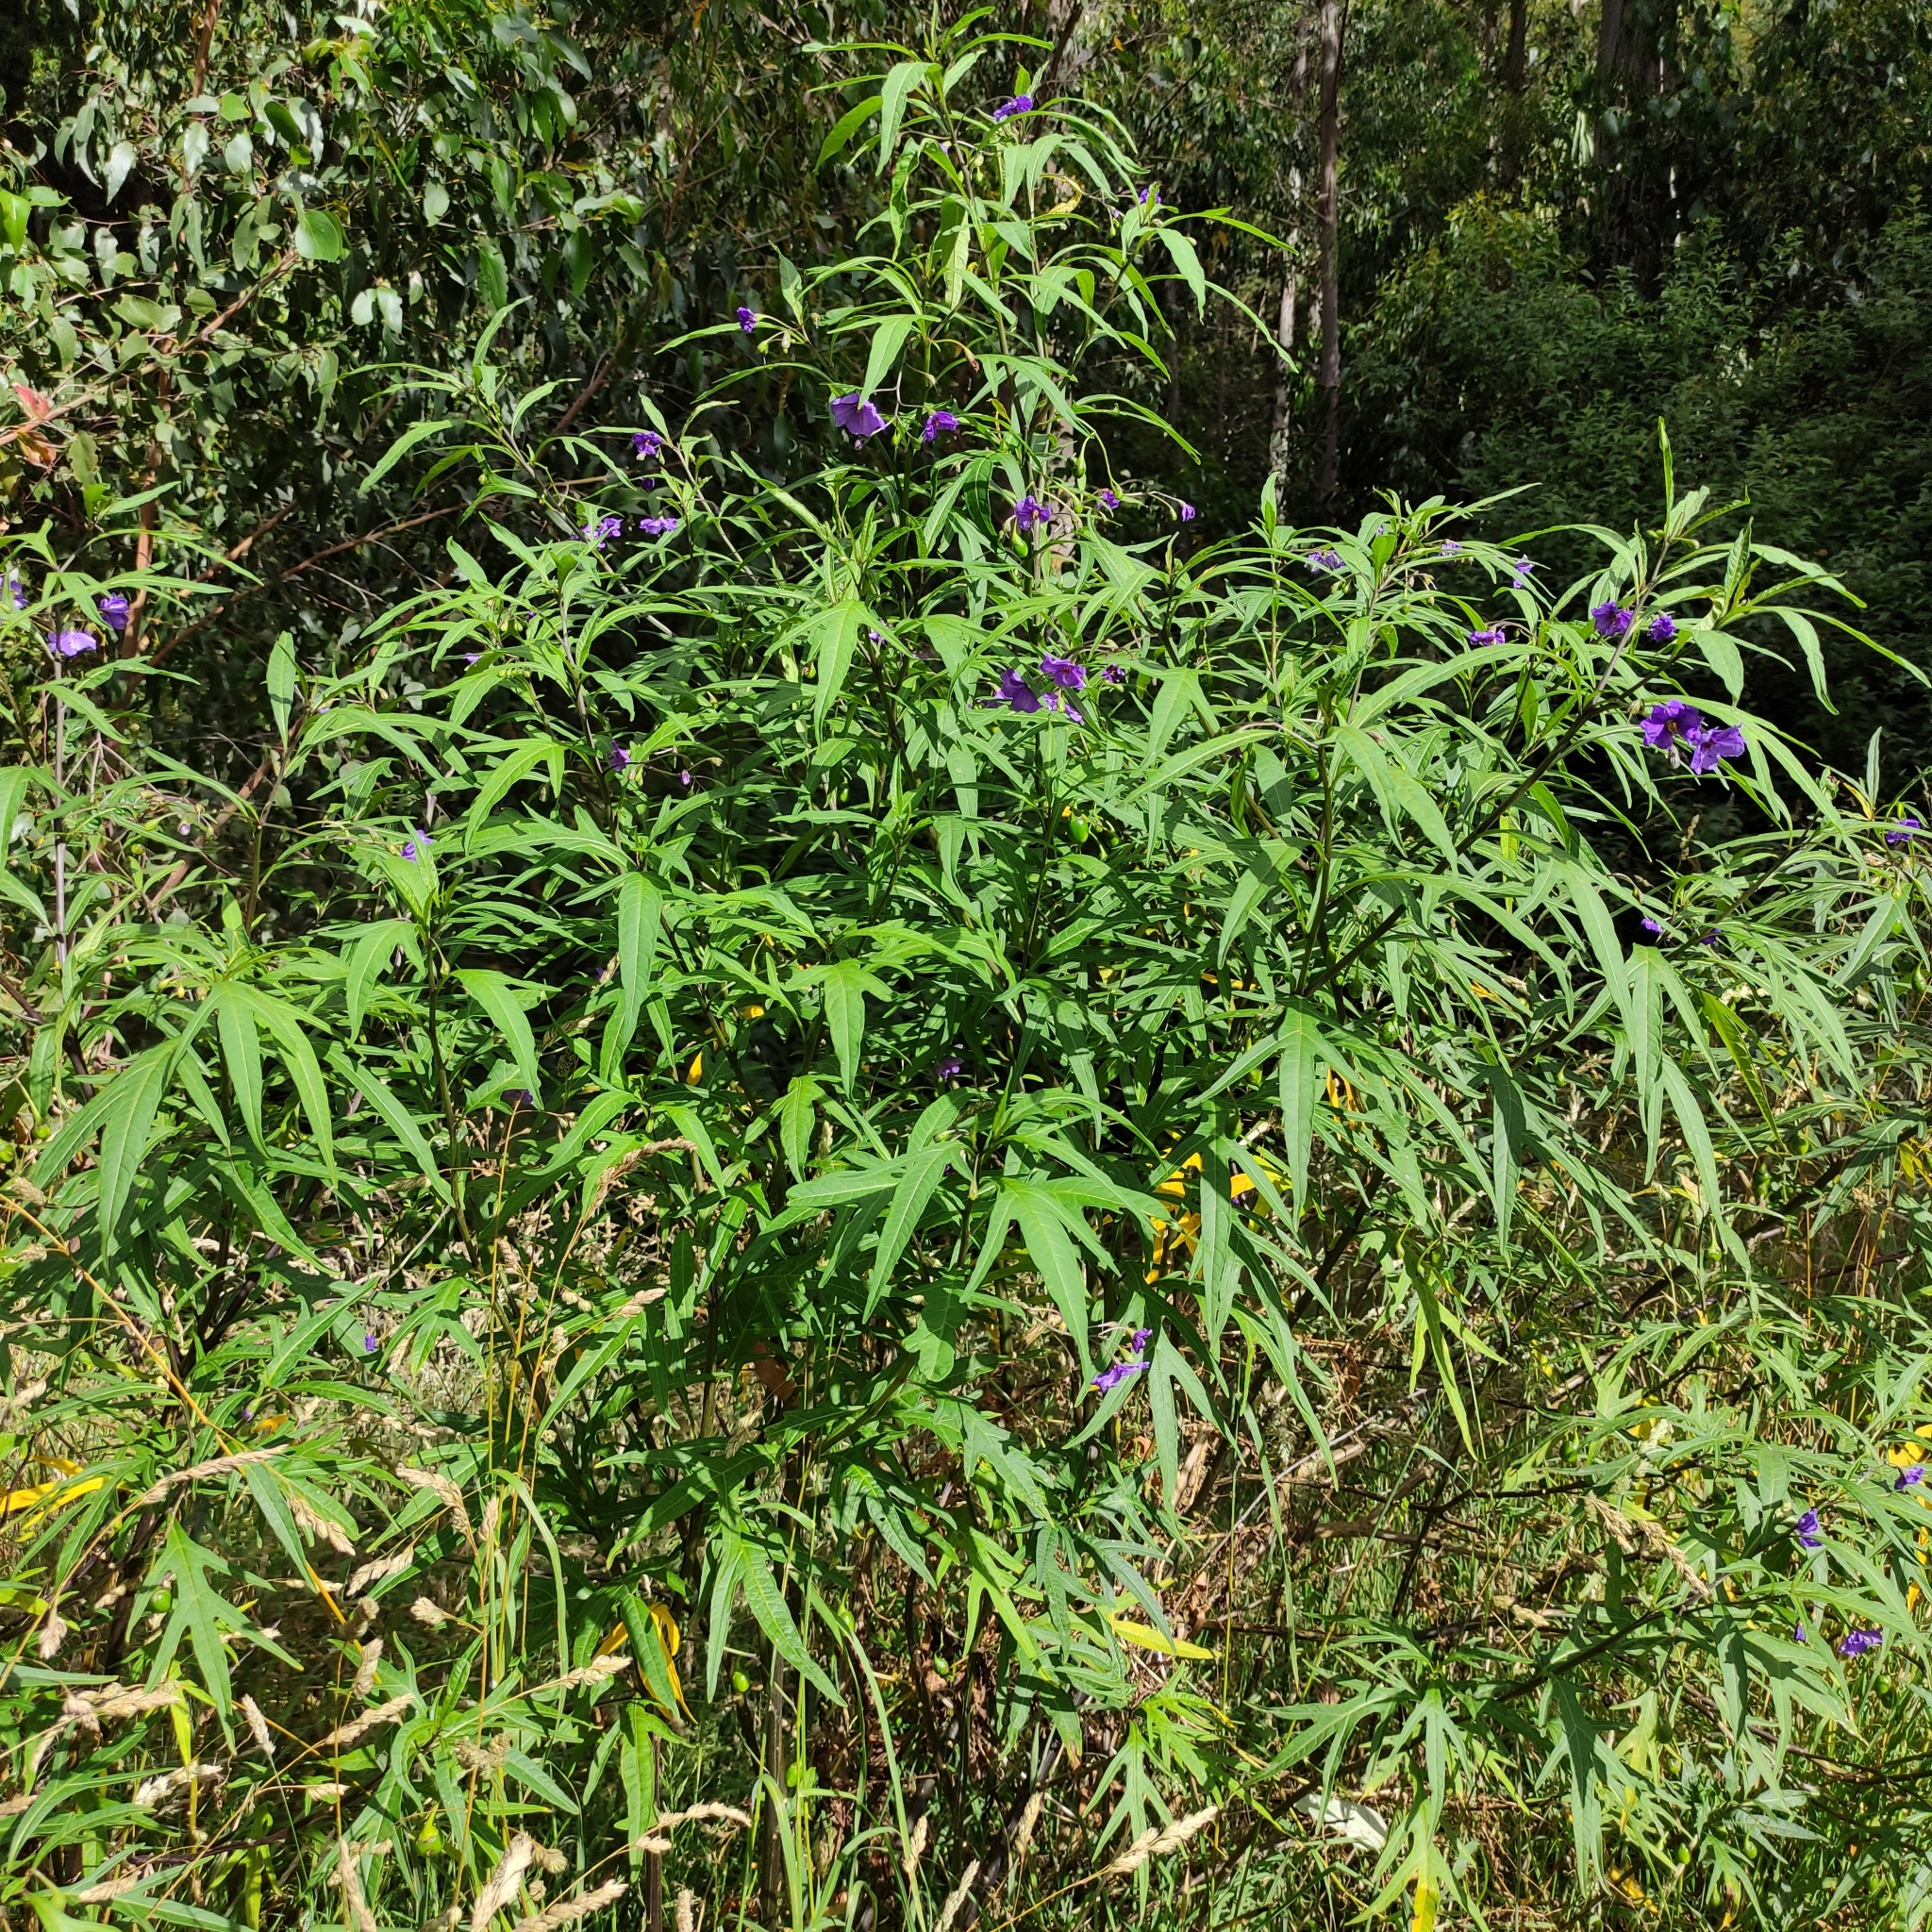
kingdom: Plantae
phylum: Tracheophyta
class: Magnoliopsida
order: Solanales
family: Solanaceae
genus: Solanum
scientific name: Solanum laciniatum
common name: Kangaroo-apple
